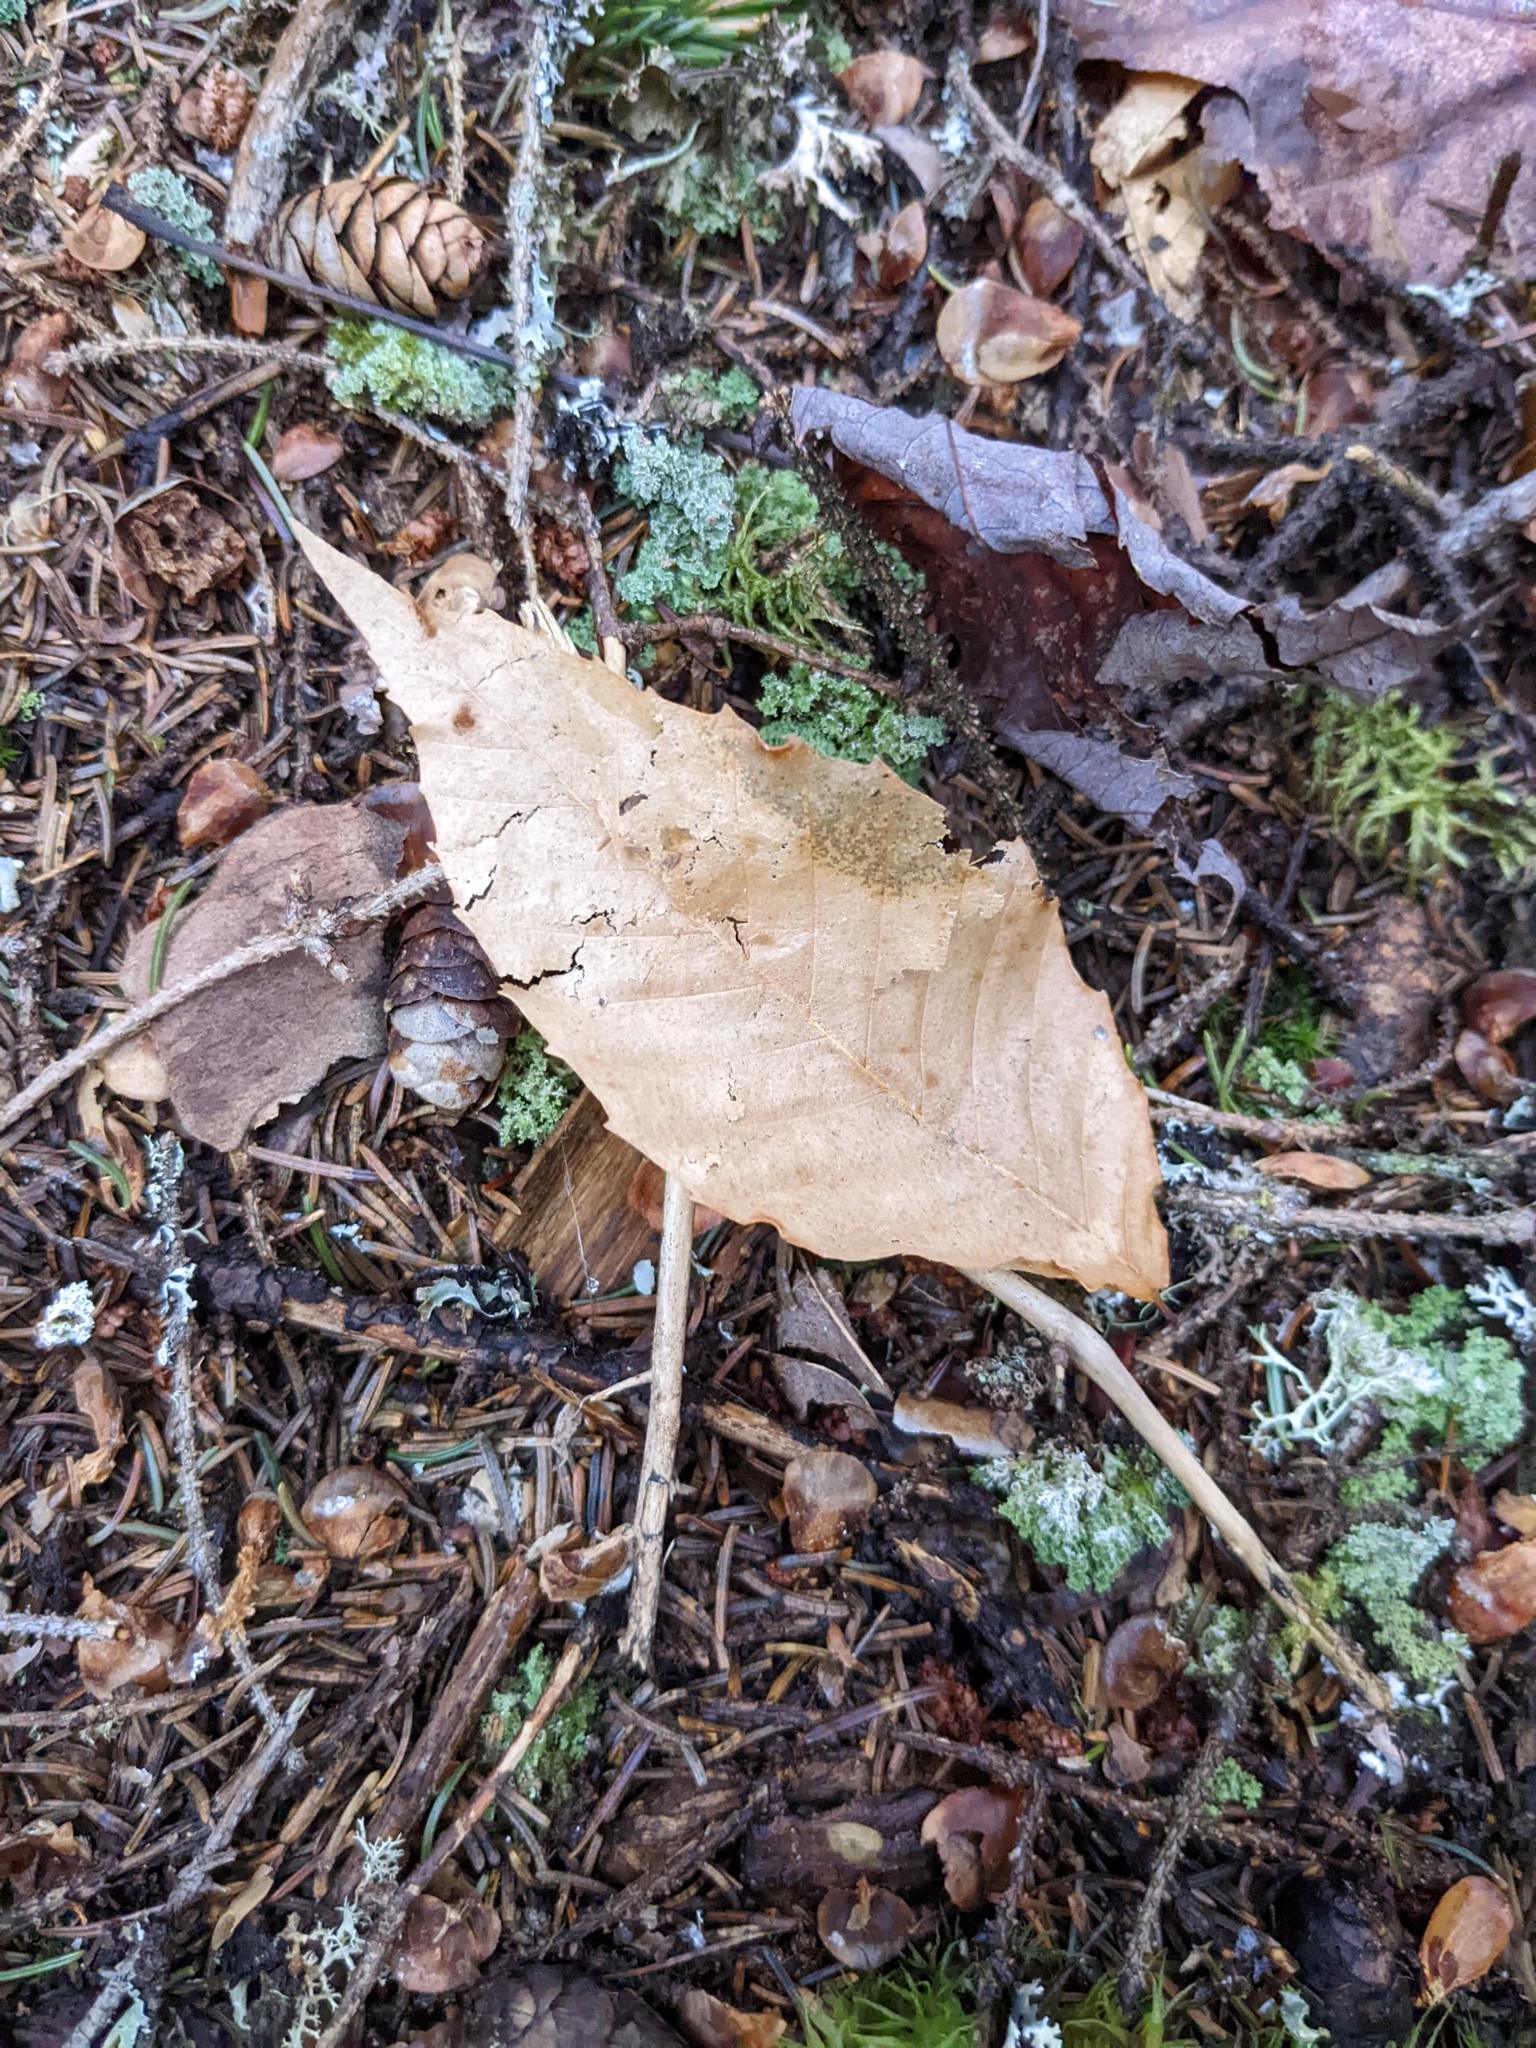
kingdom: Plantae
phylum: Tracheophyta
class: Magnoliopsida
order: Fagales
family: Fagaceae
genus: Fagus
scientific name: Fagus grandifolia
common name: American beech
